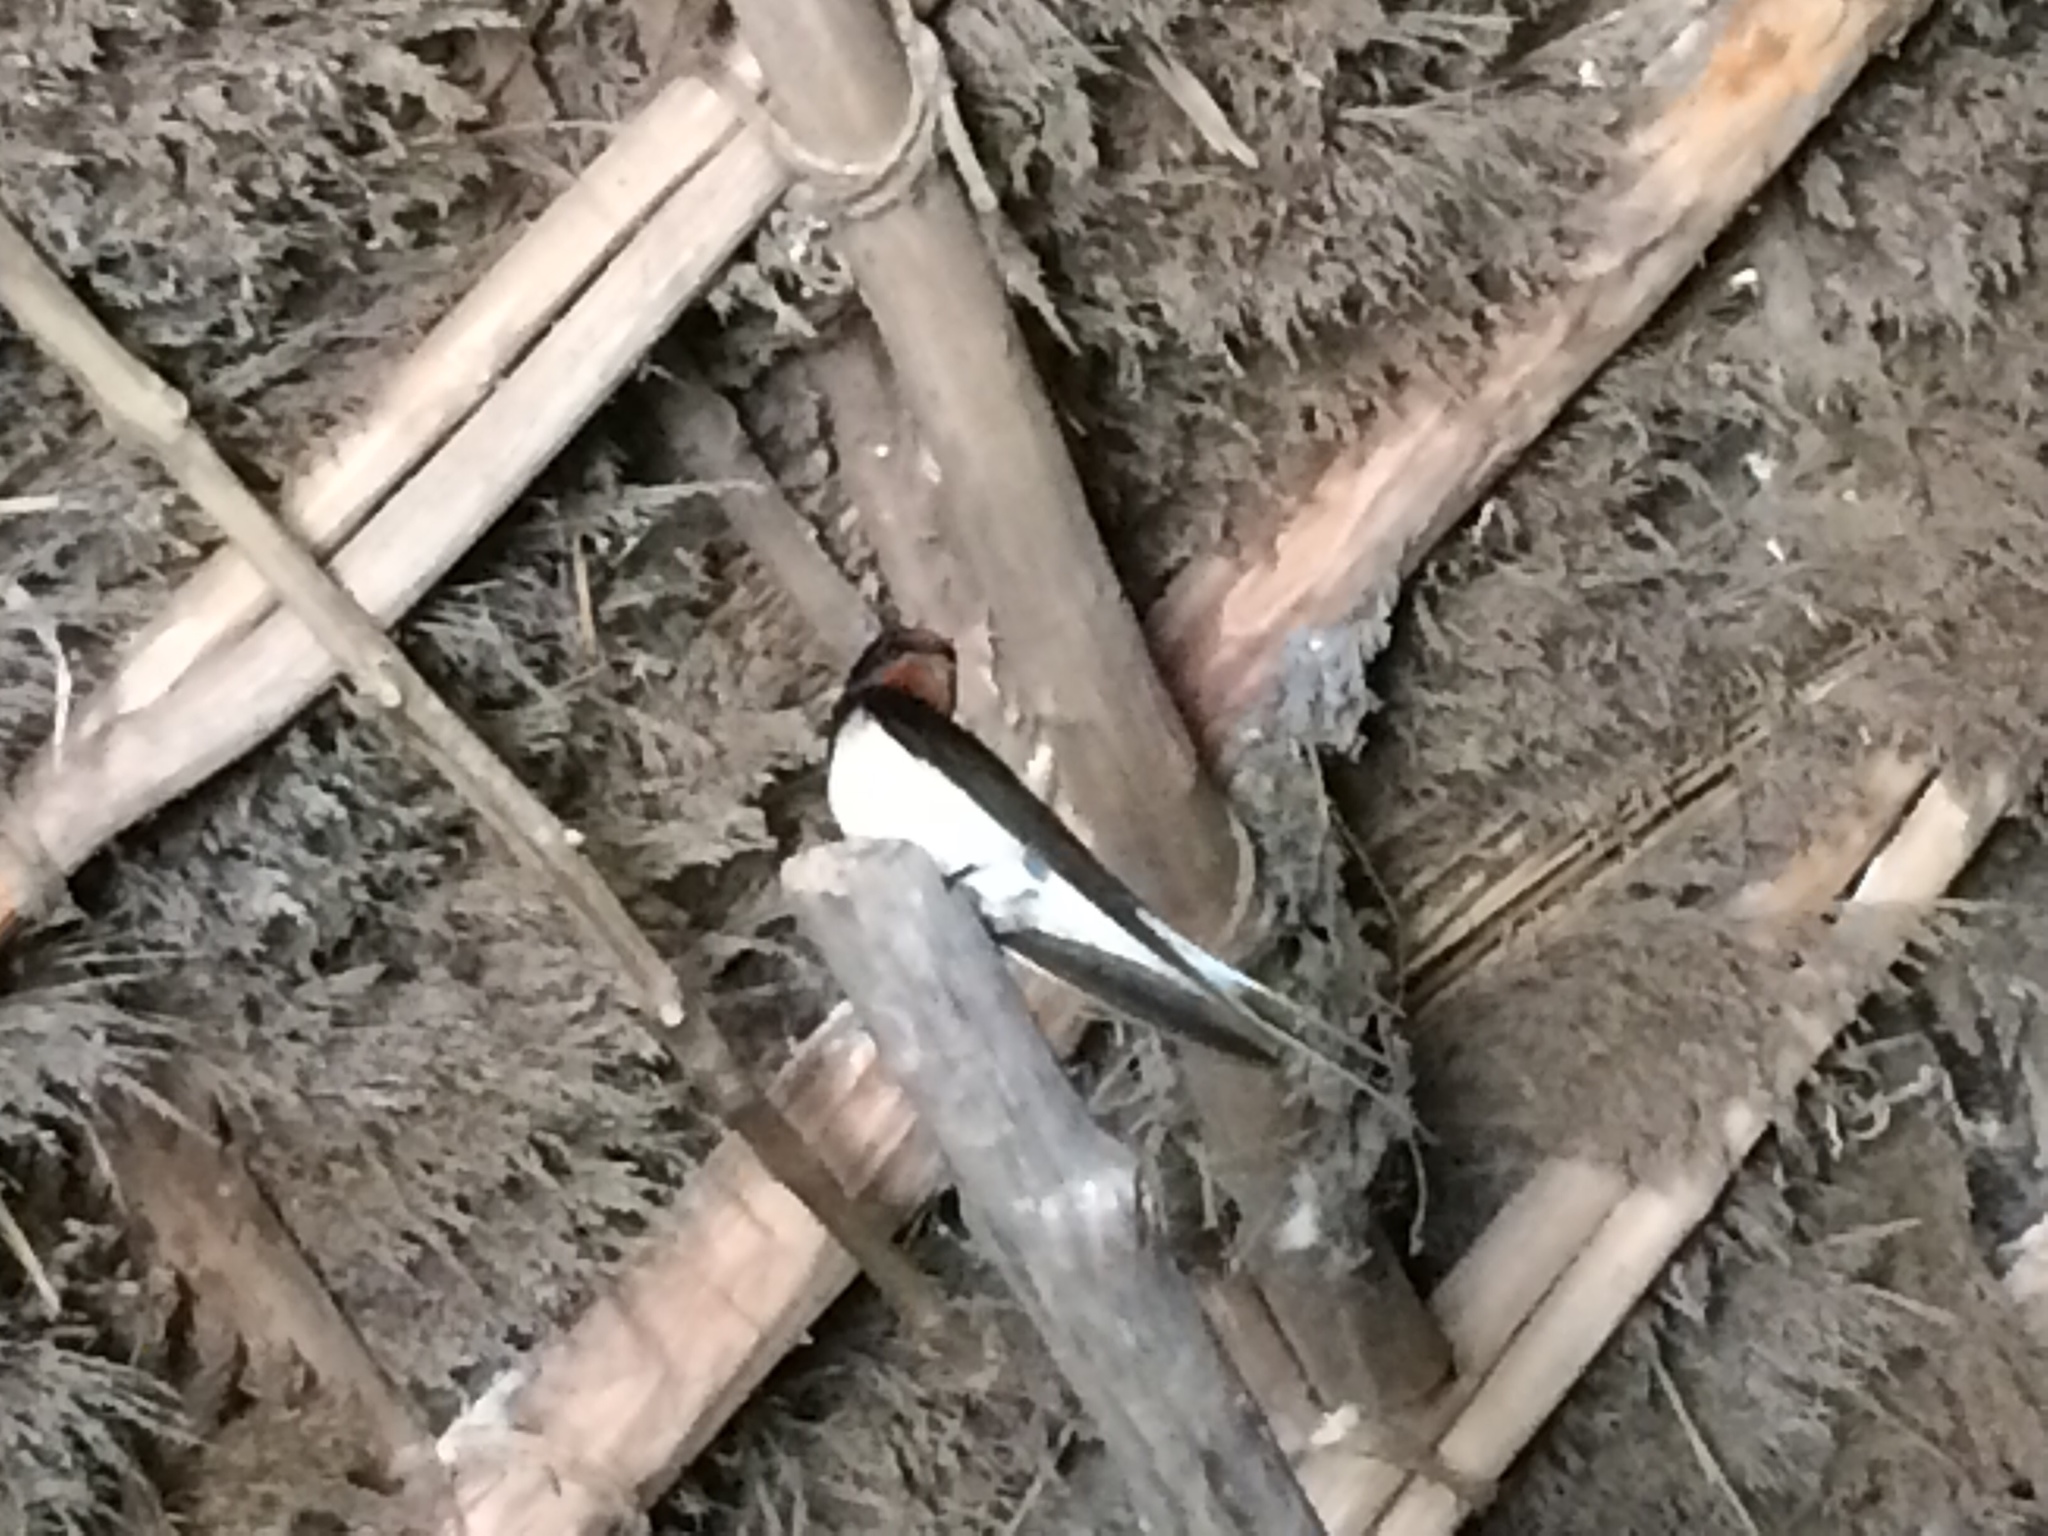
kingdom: Animalia
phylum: Chordata
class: Aves
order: Passeriformes
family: Hirundinidae
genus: Hirundo
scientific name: Hirundo rustica
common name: Barn swallow
